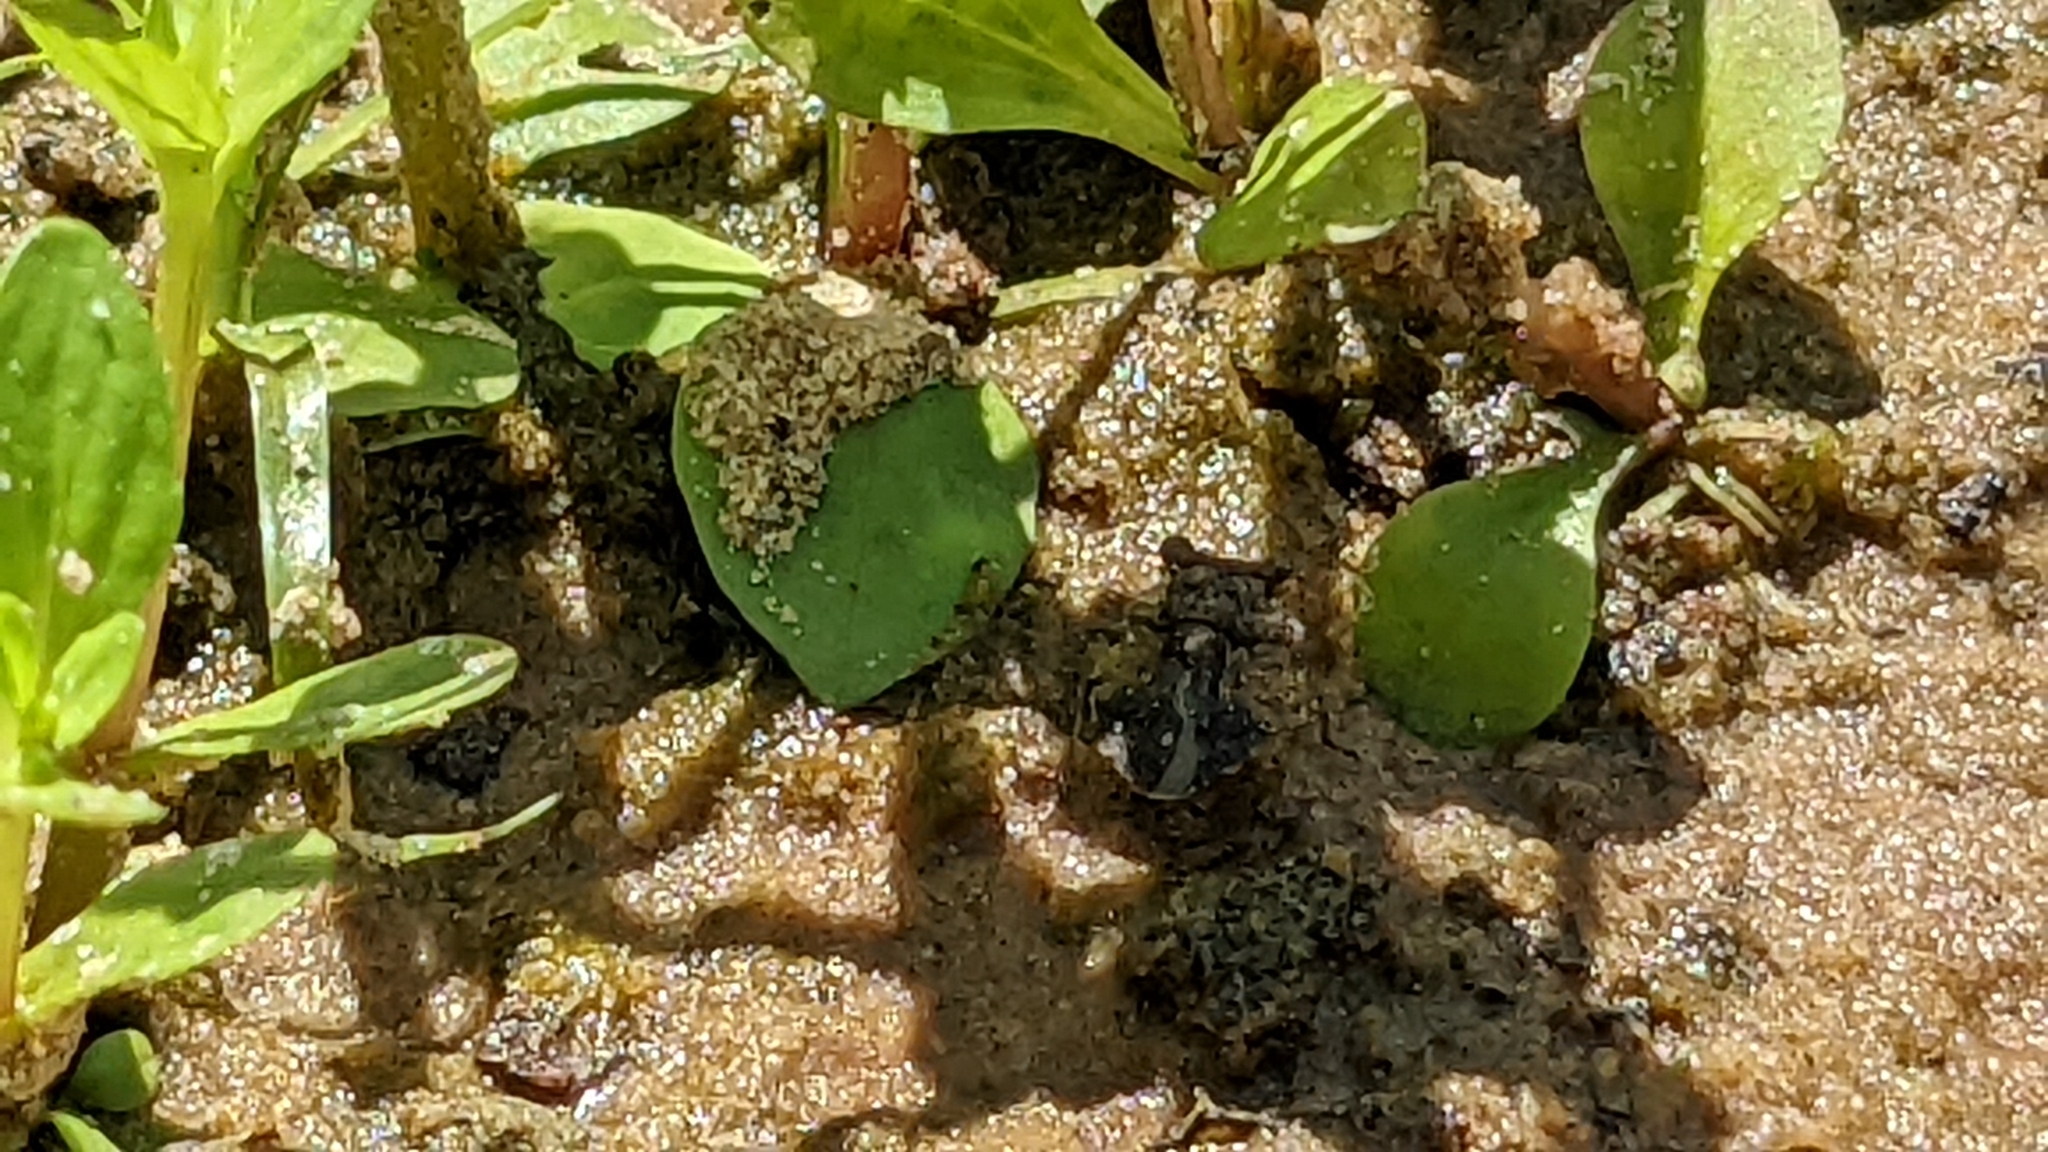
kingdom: Animalia
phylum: Arthropoda
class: Insecta
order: Hemiptera
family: Gelastocoridae
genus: Gelastocoris
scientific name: Gelastocoris oculatus
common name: Toad bug
